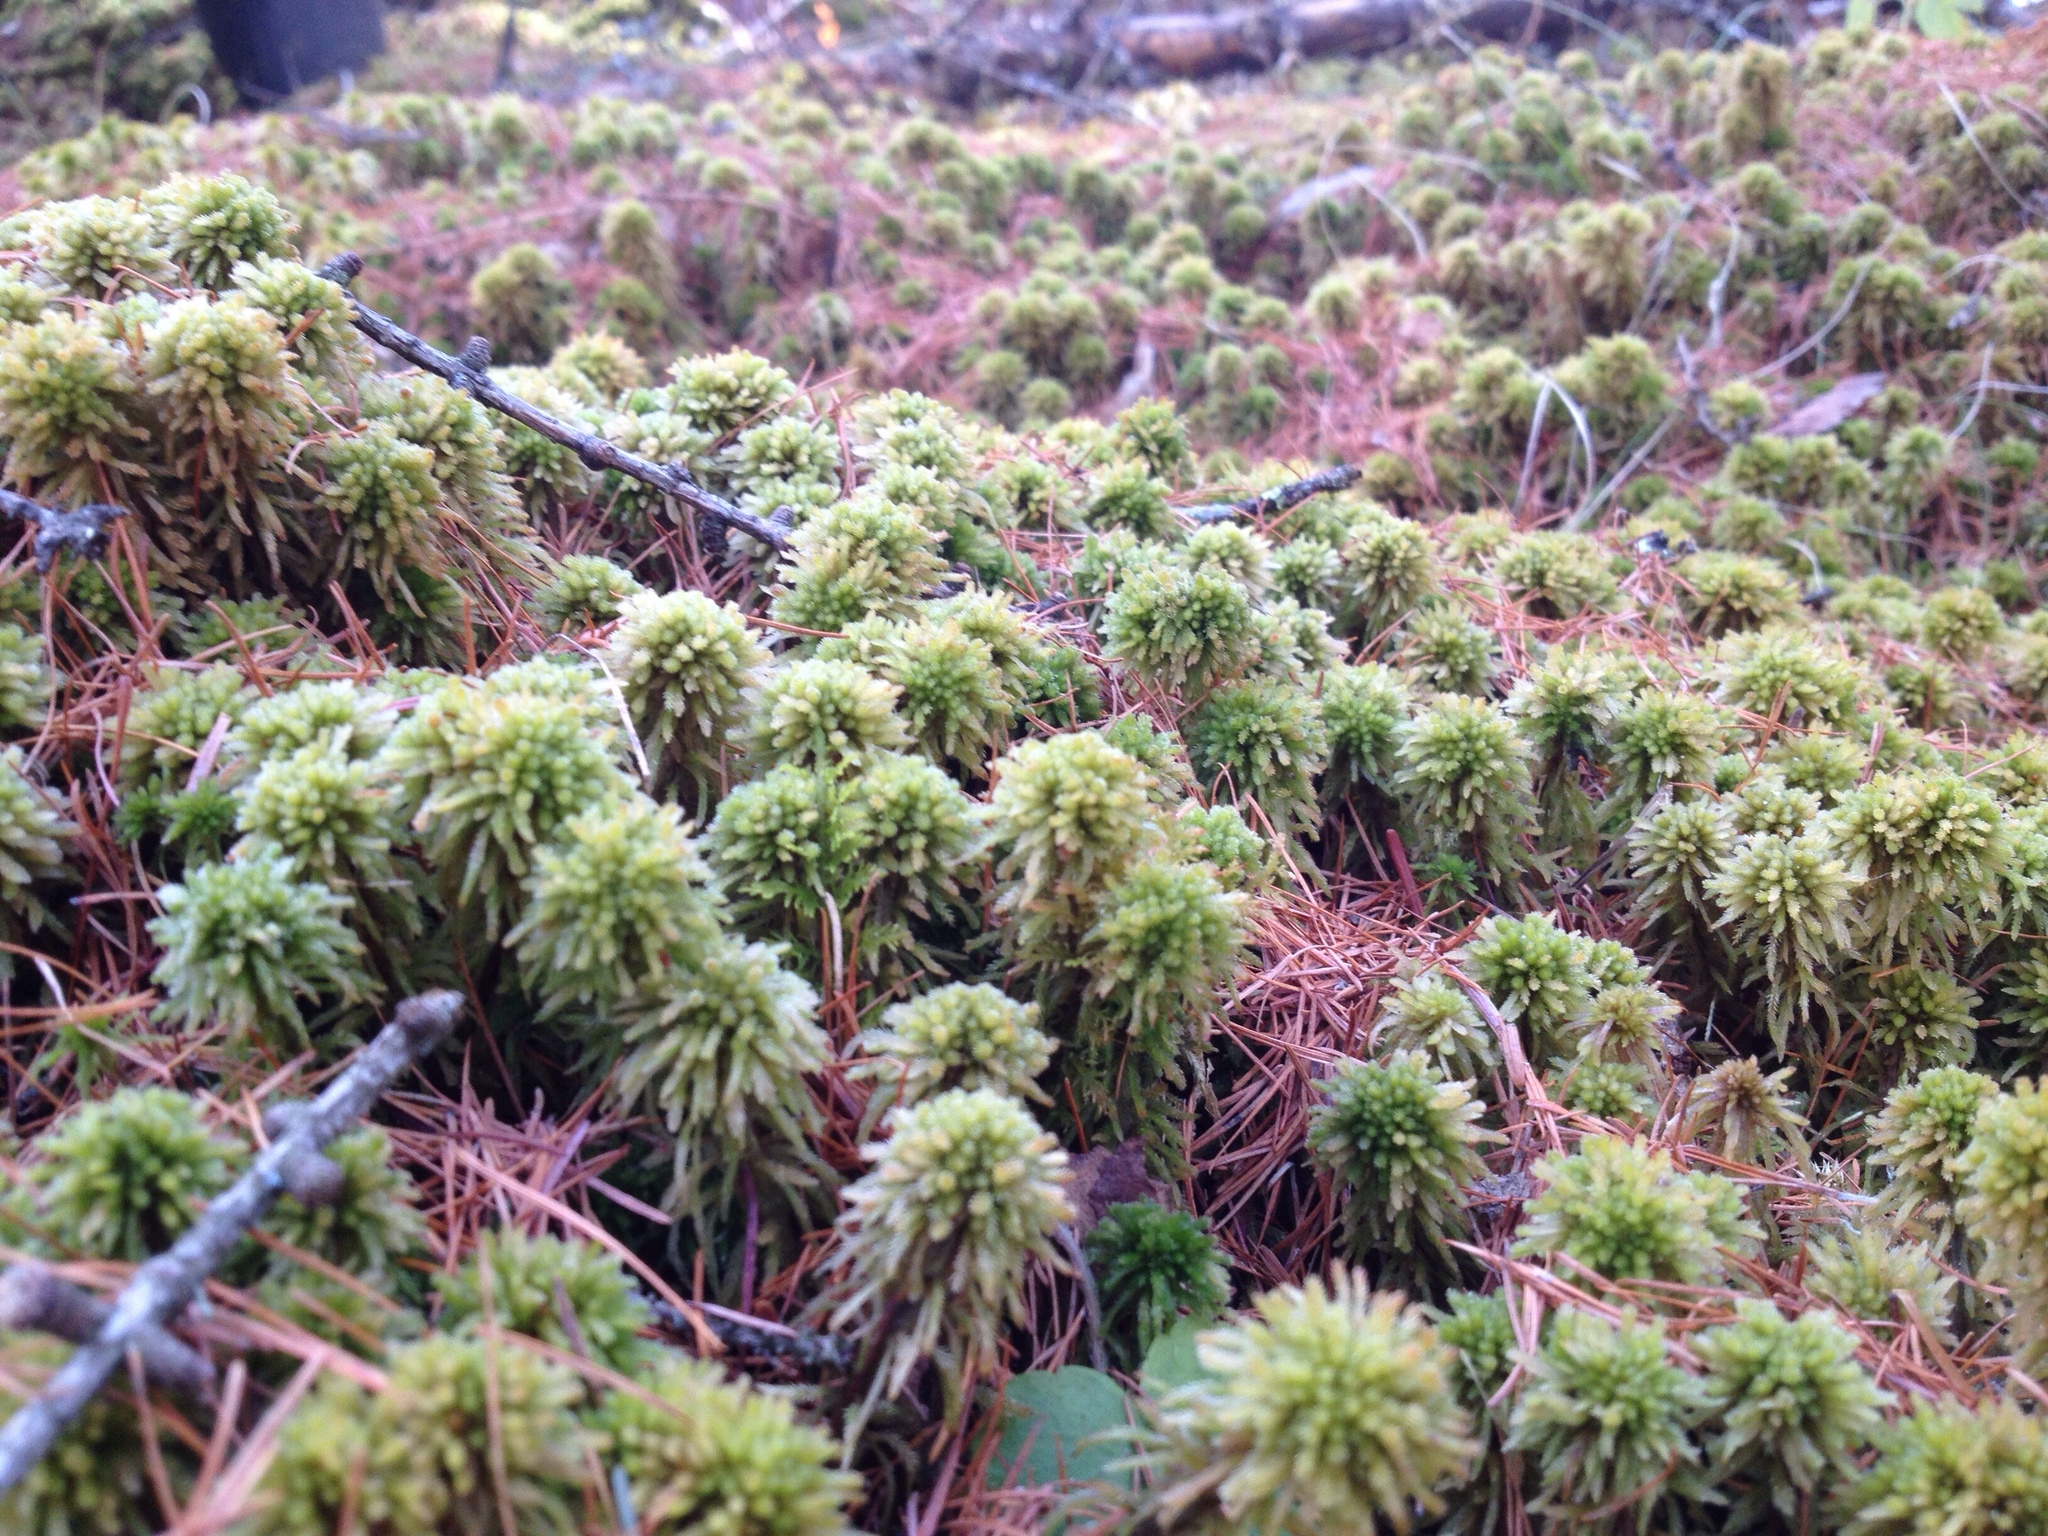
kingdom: Plantae
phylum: Bryophyta
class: Sphagnopsida
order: Sphagnales
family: Sphagnaceae
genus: Sphagnum
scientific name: Sphagnum wulfianum
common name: Wulf's peat moss
